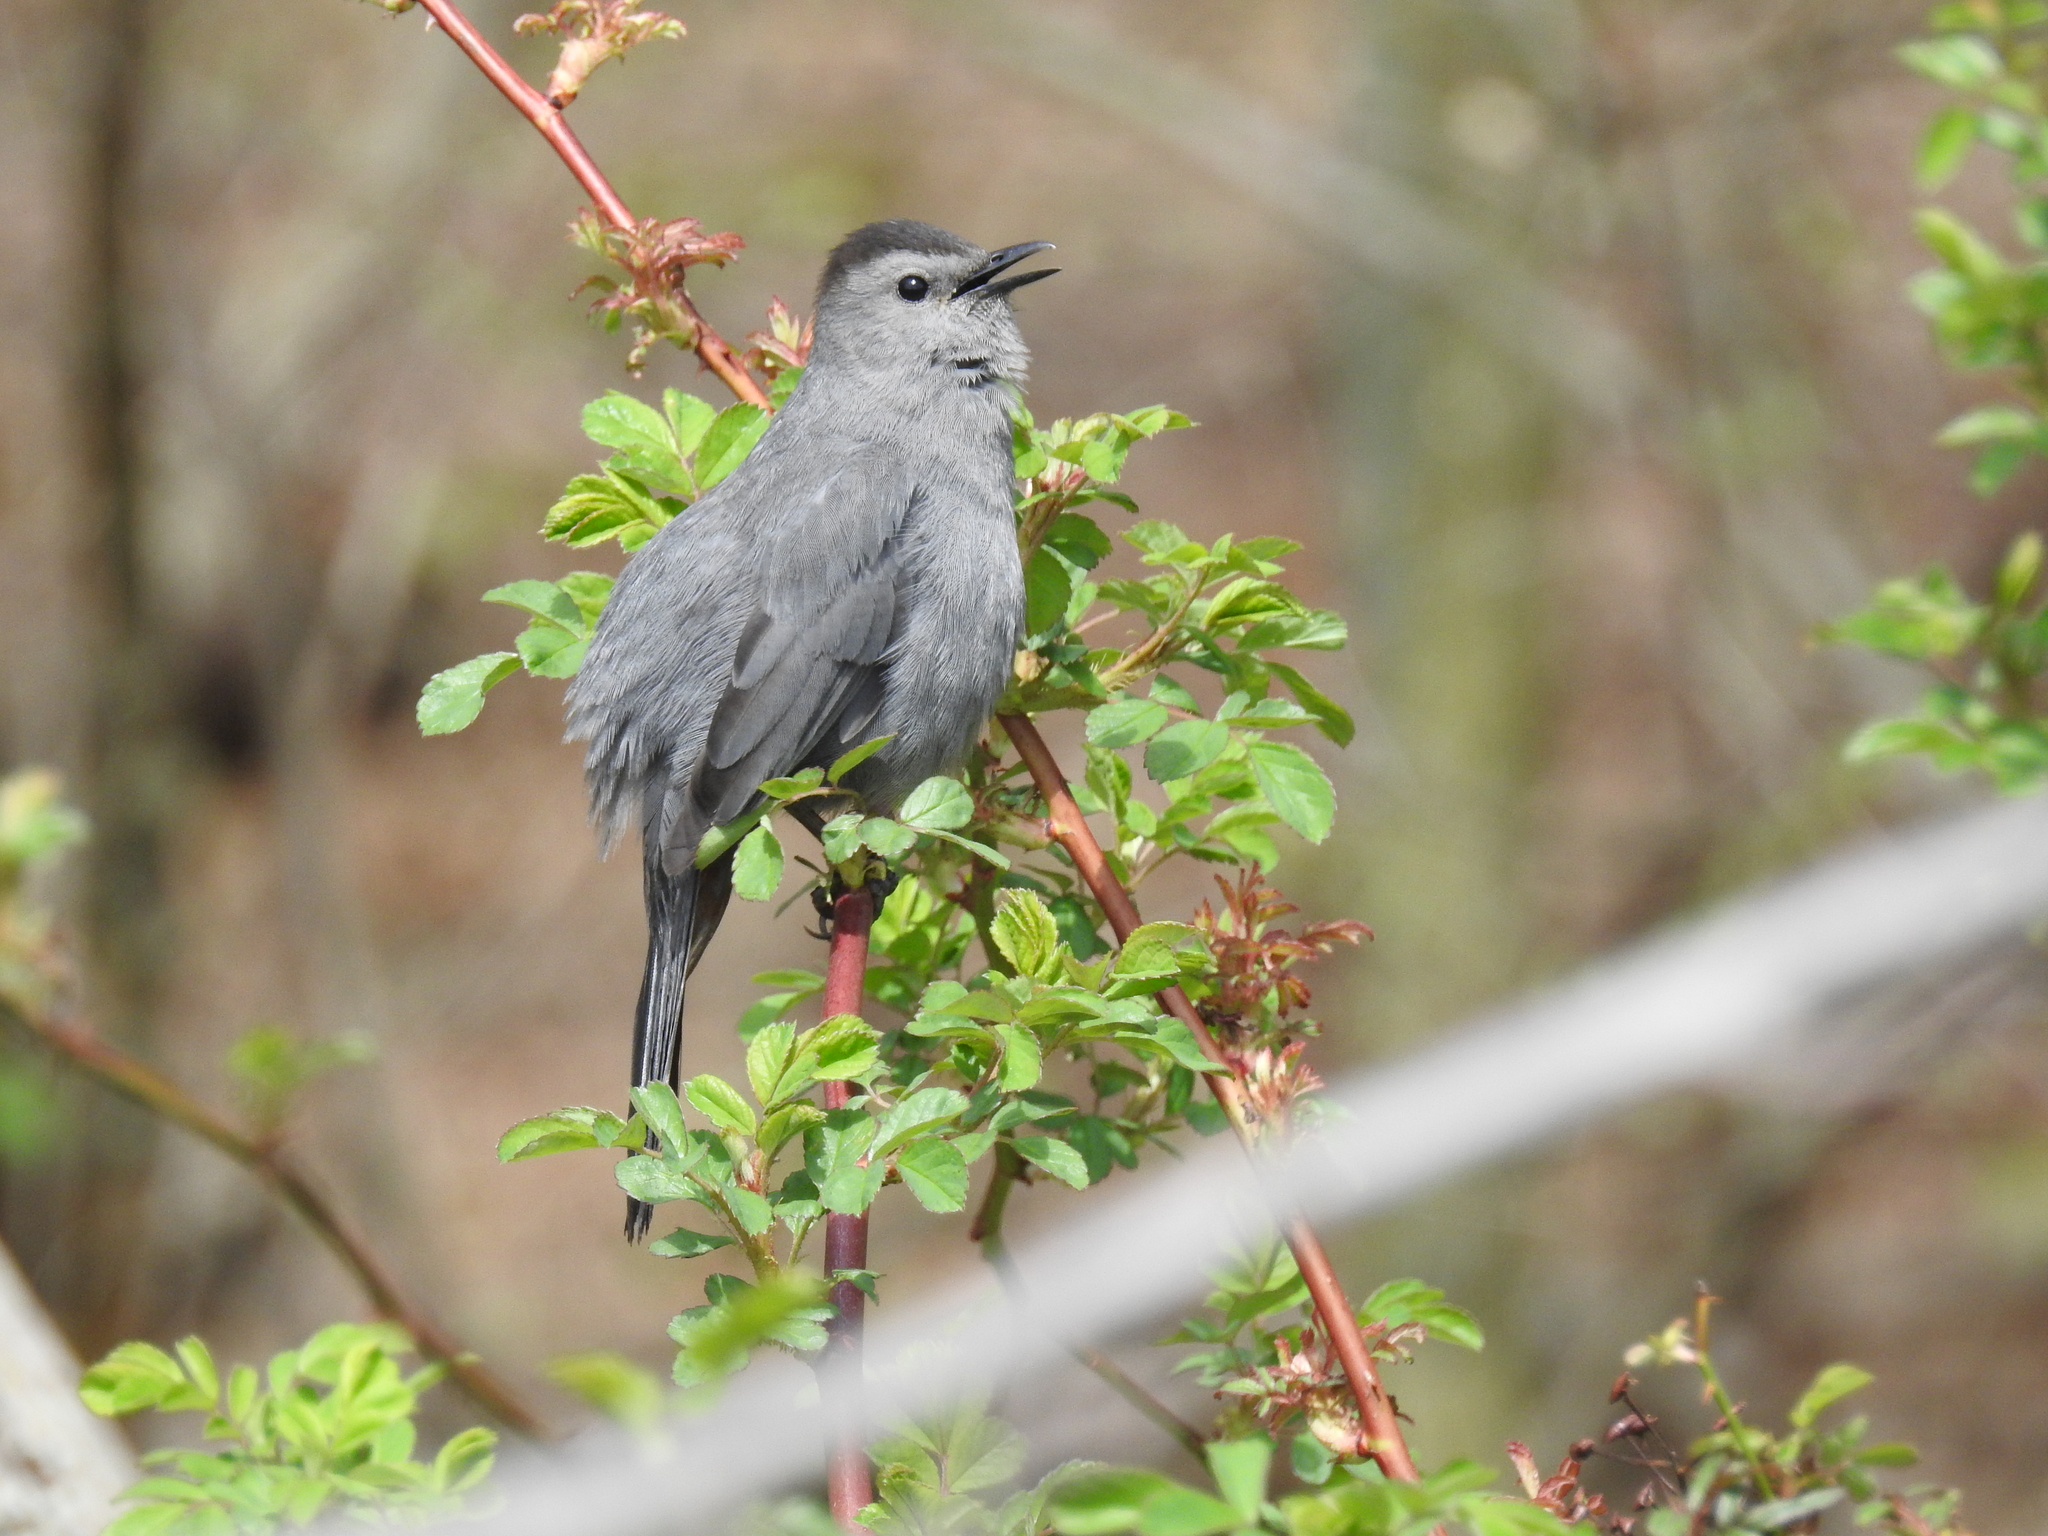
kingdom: Animalia
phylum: Chordata
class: Aves
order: Passeriformes
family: Mimidae
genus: Dumetella
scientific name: Dumetella carolinensis
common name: Gray catbird
